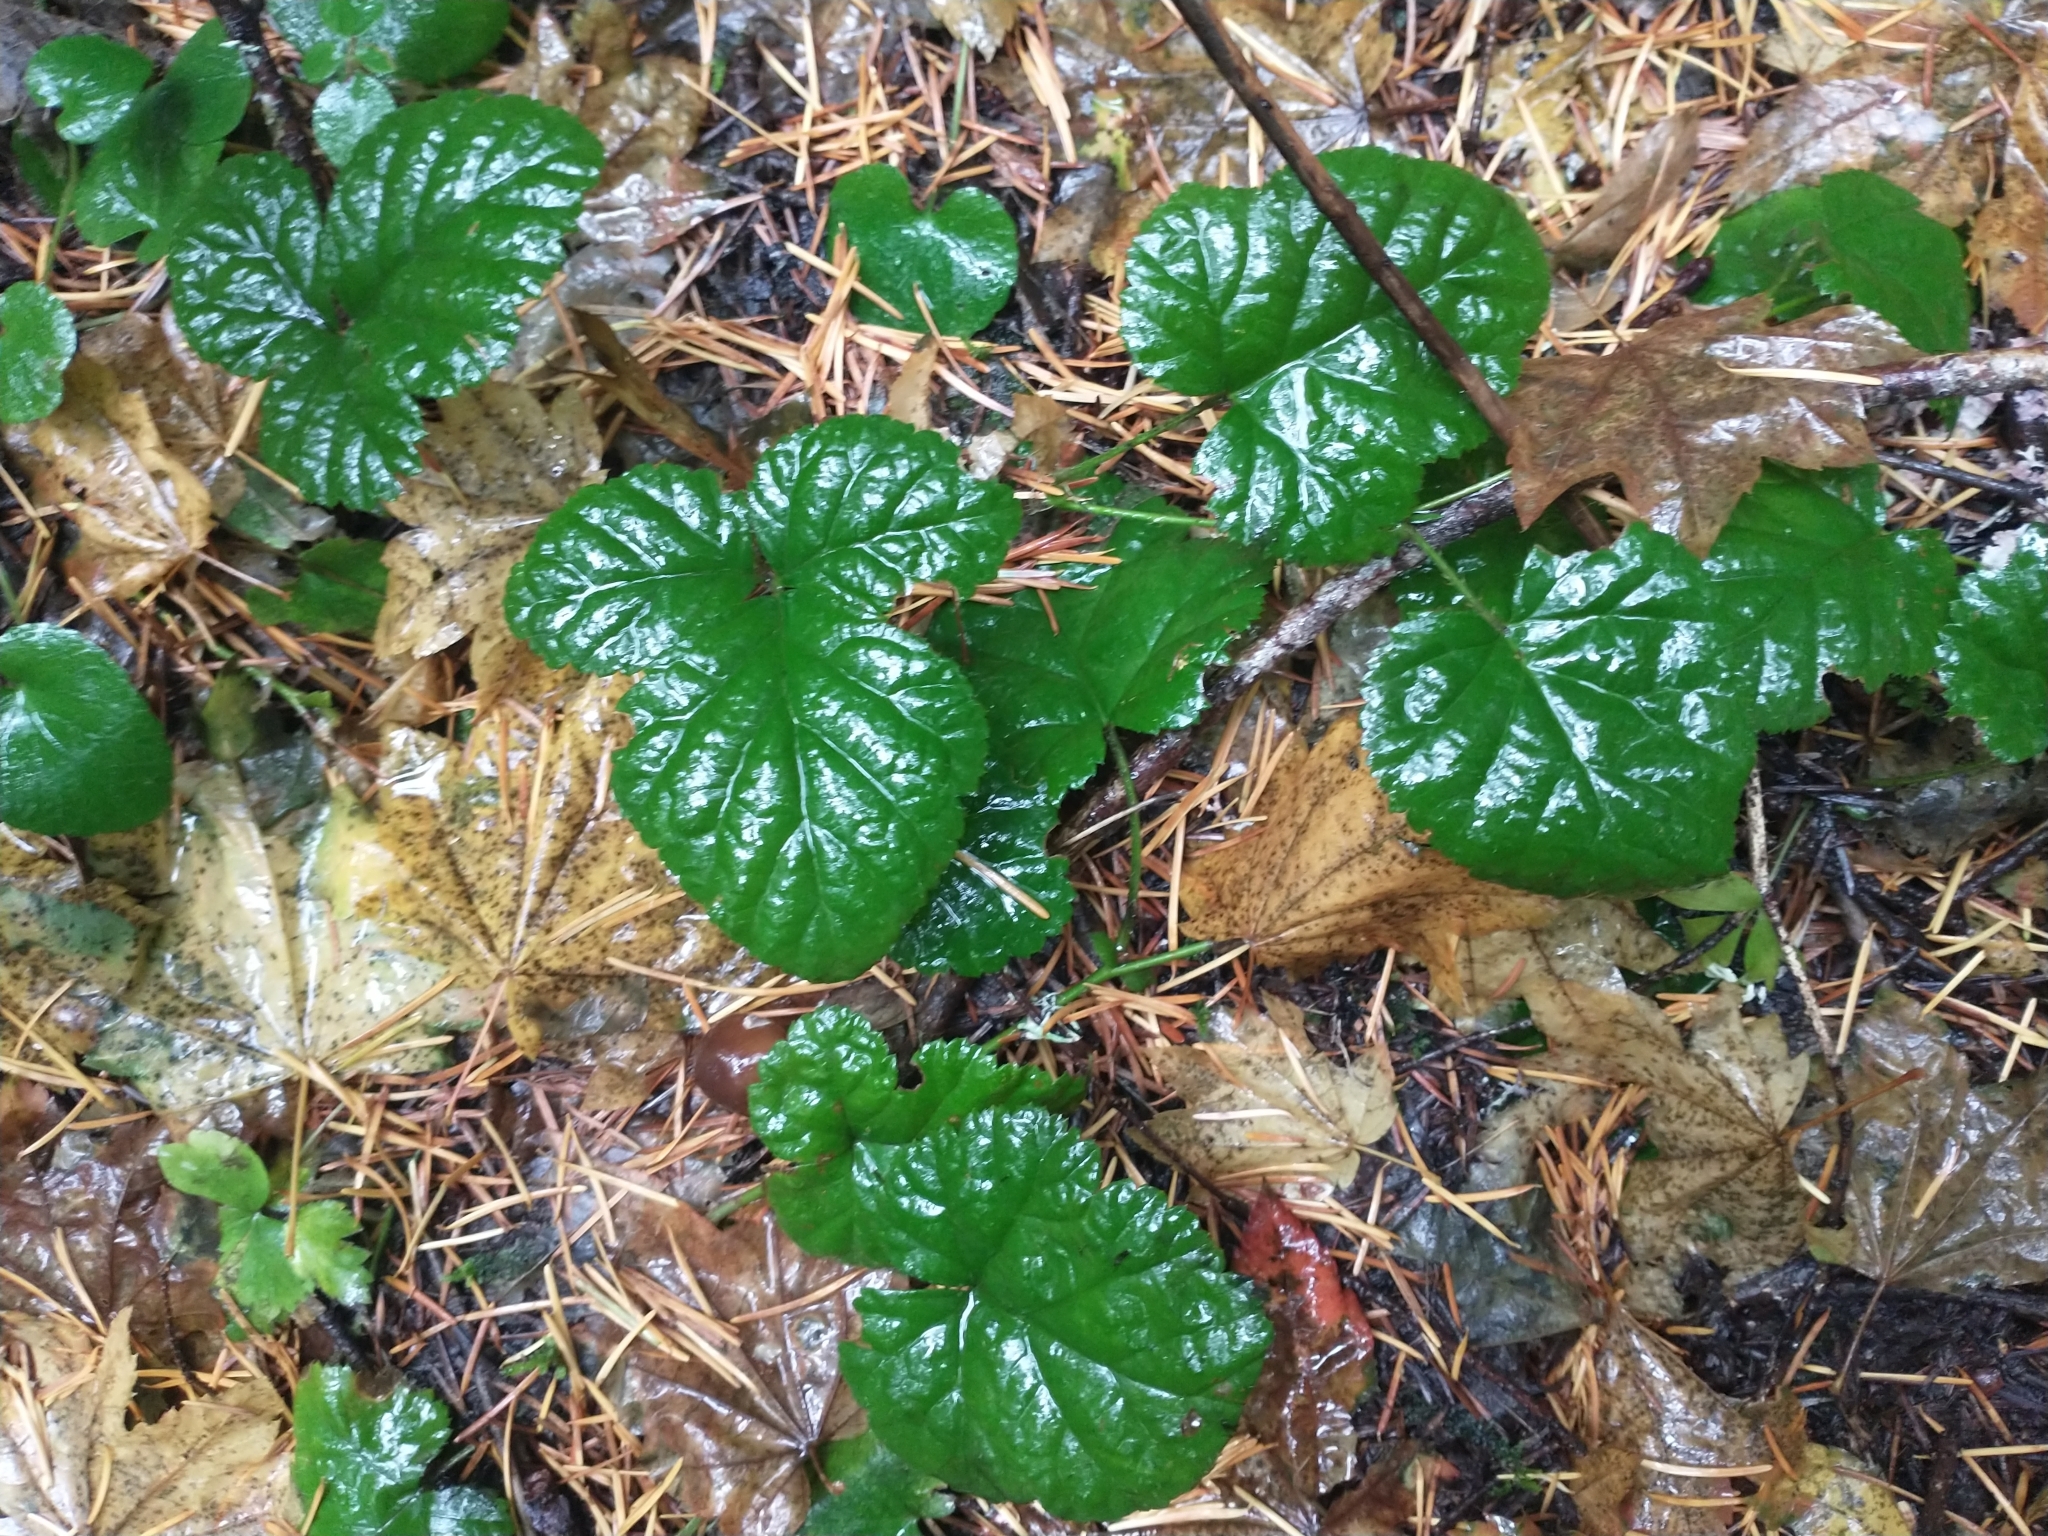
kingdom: Plantae
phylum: Tracheophyta
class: Magnoliopsida
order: Rosales
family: Rosaceae
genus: Rubus
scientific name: Rubus nivalis
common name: Dwarf snow bramble
